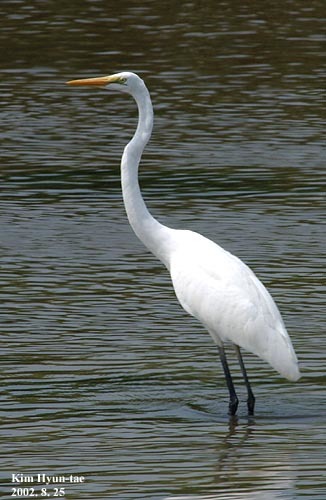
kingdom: Animalia
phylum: Chordata
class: Aves
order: Pelecaniformes
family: Ardeidae
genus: Ardea
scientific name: Ardea modesta
